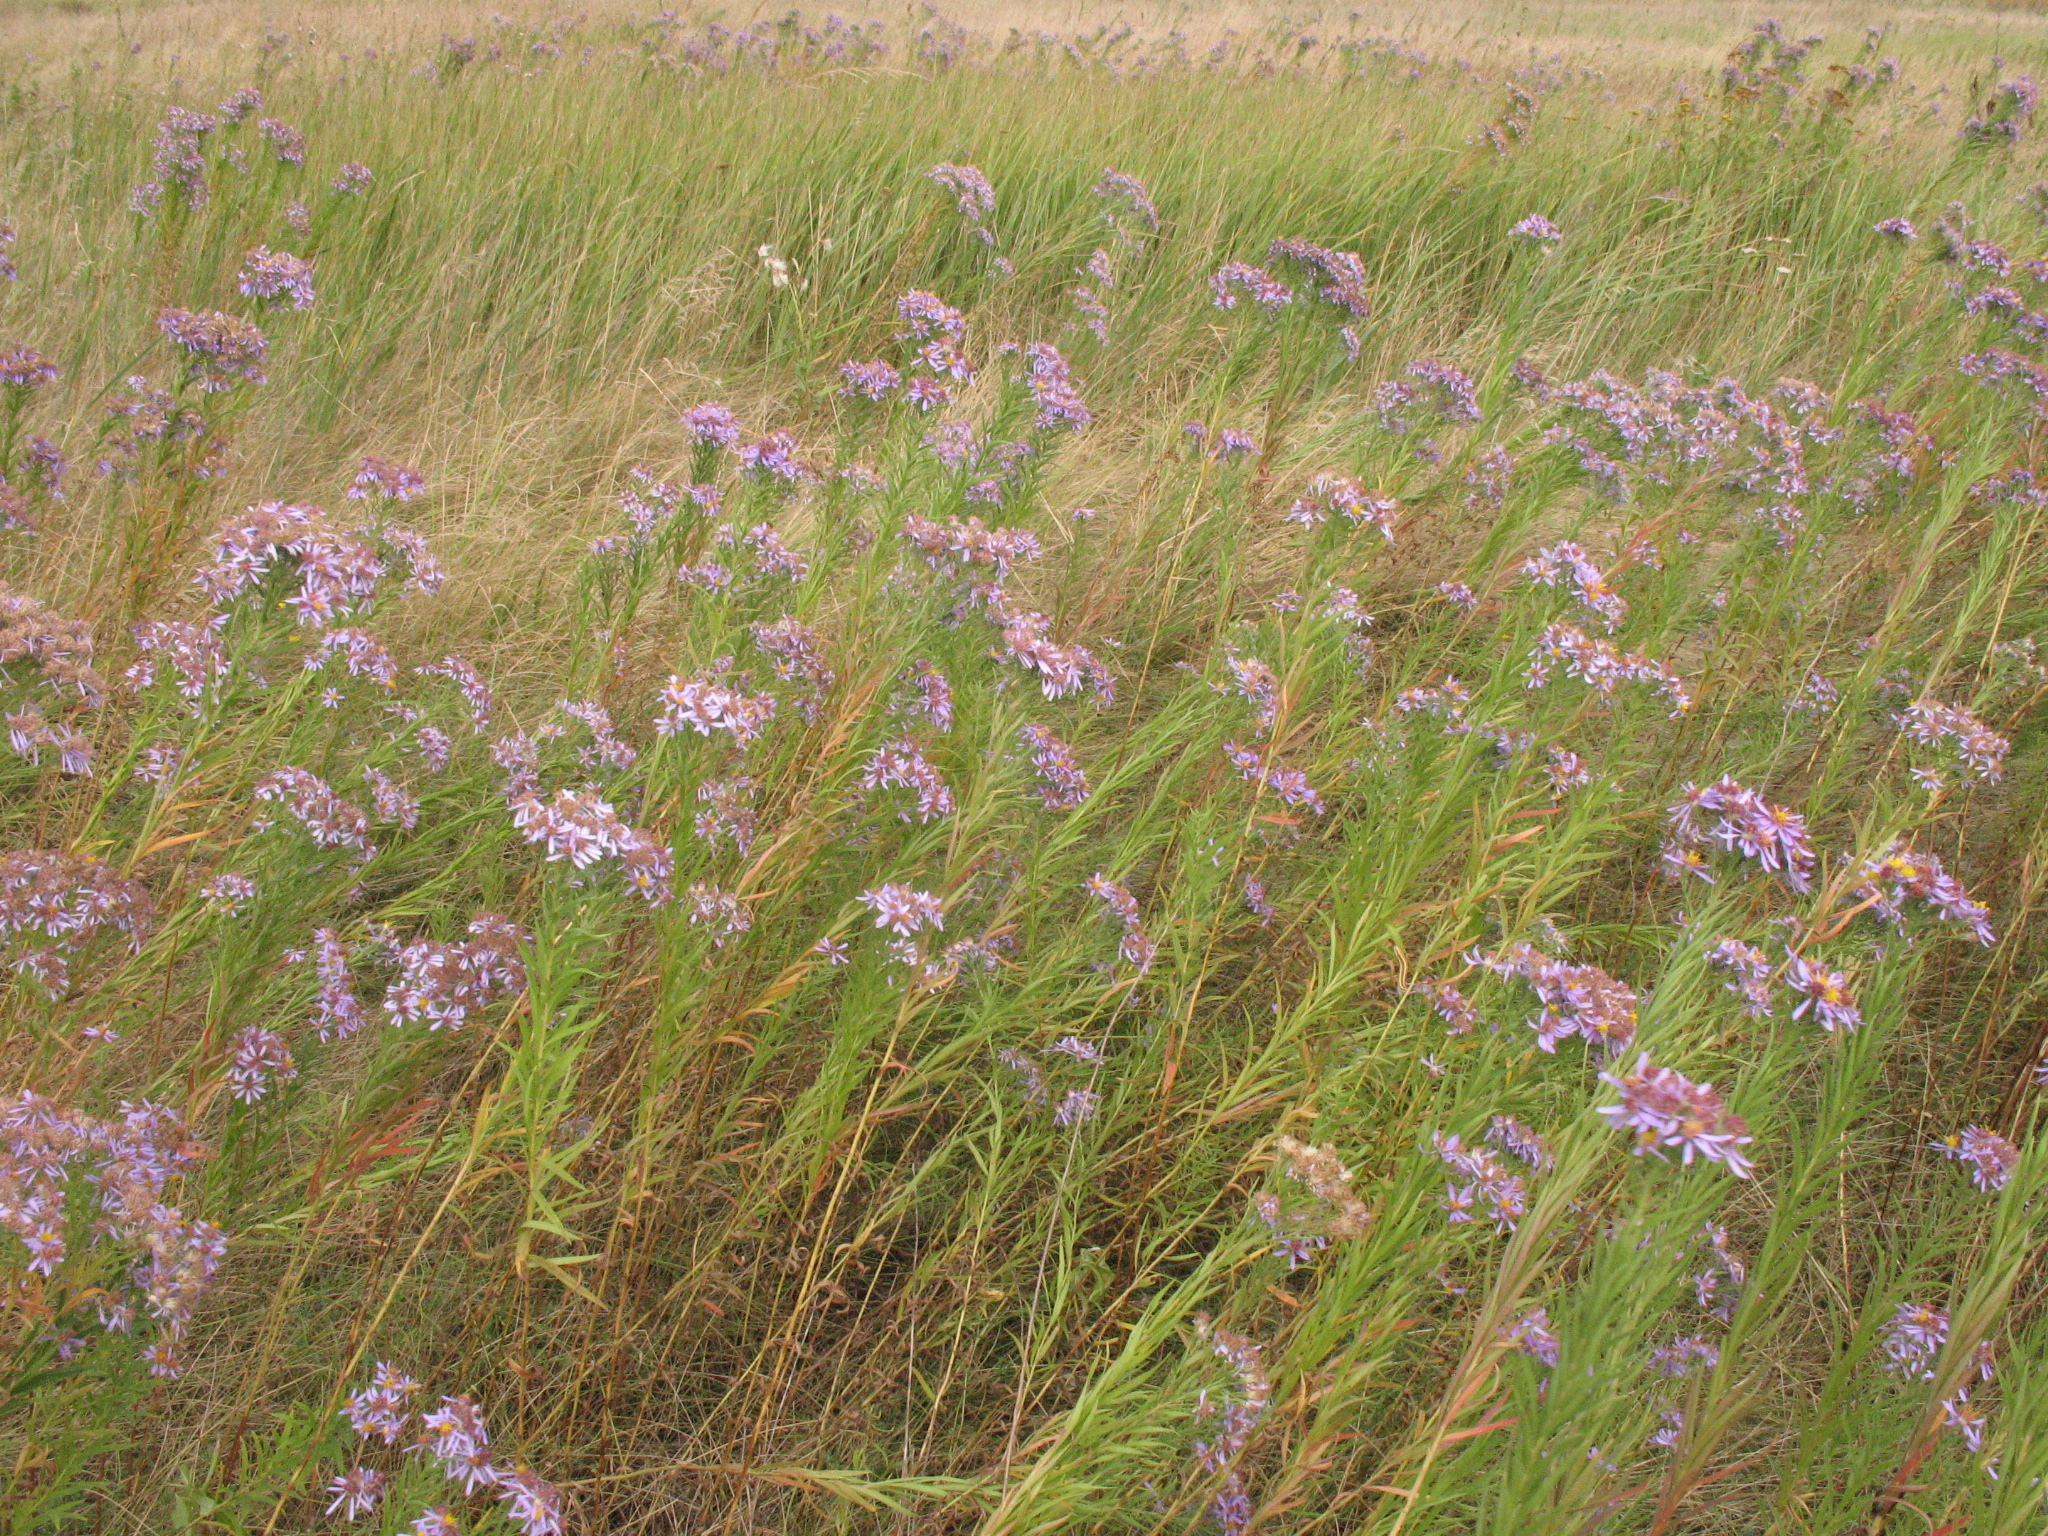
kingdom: Plantae
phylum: Tracheophyta
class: Magnoliopsida
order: Asterales
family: Asteraceae
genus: Galatella
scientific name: Galatella sedifolia
